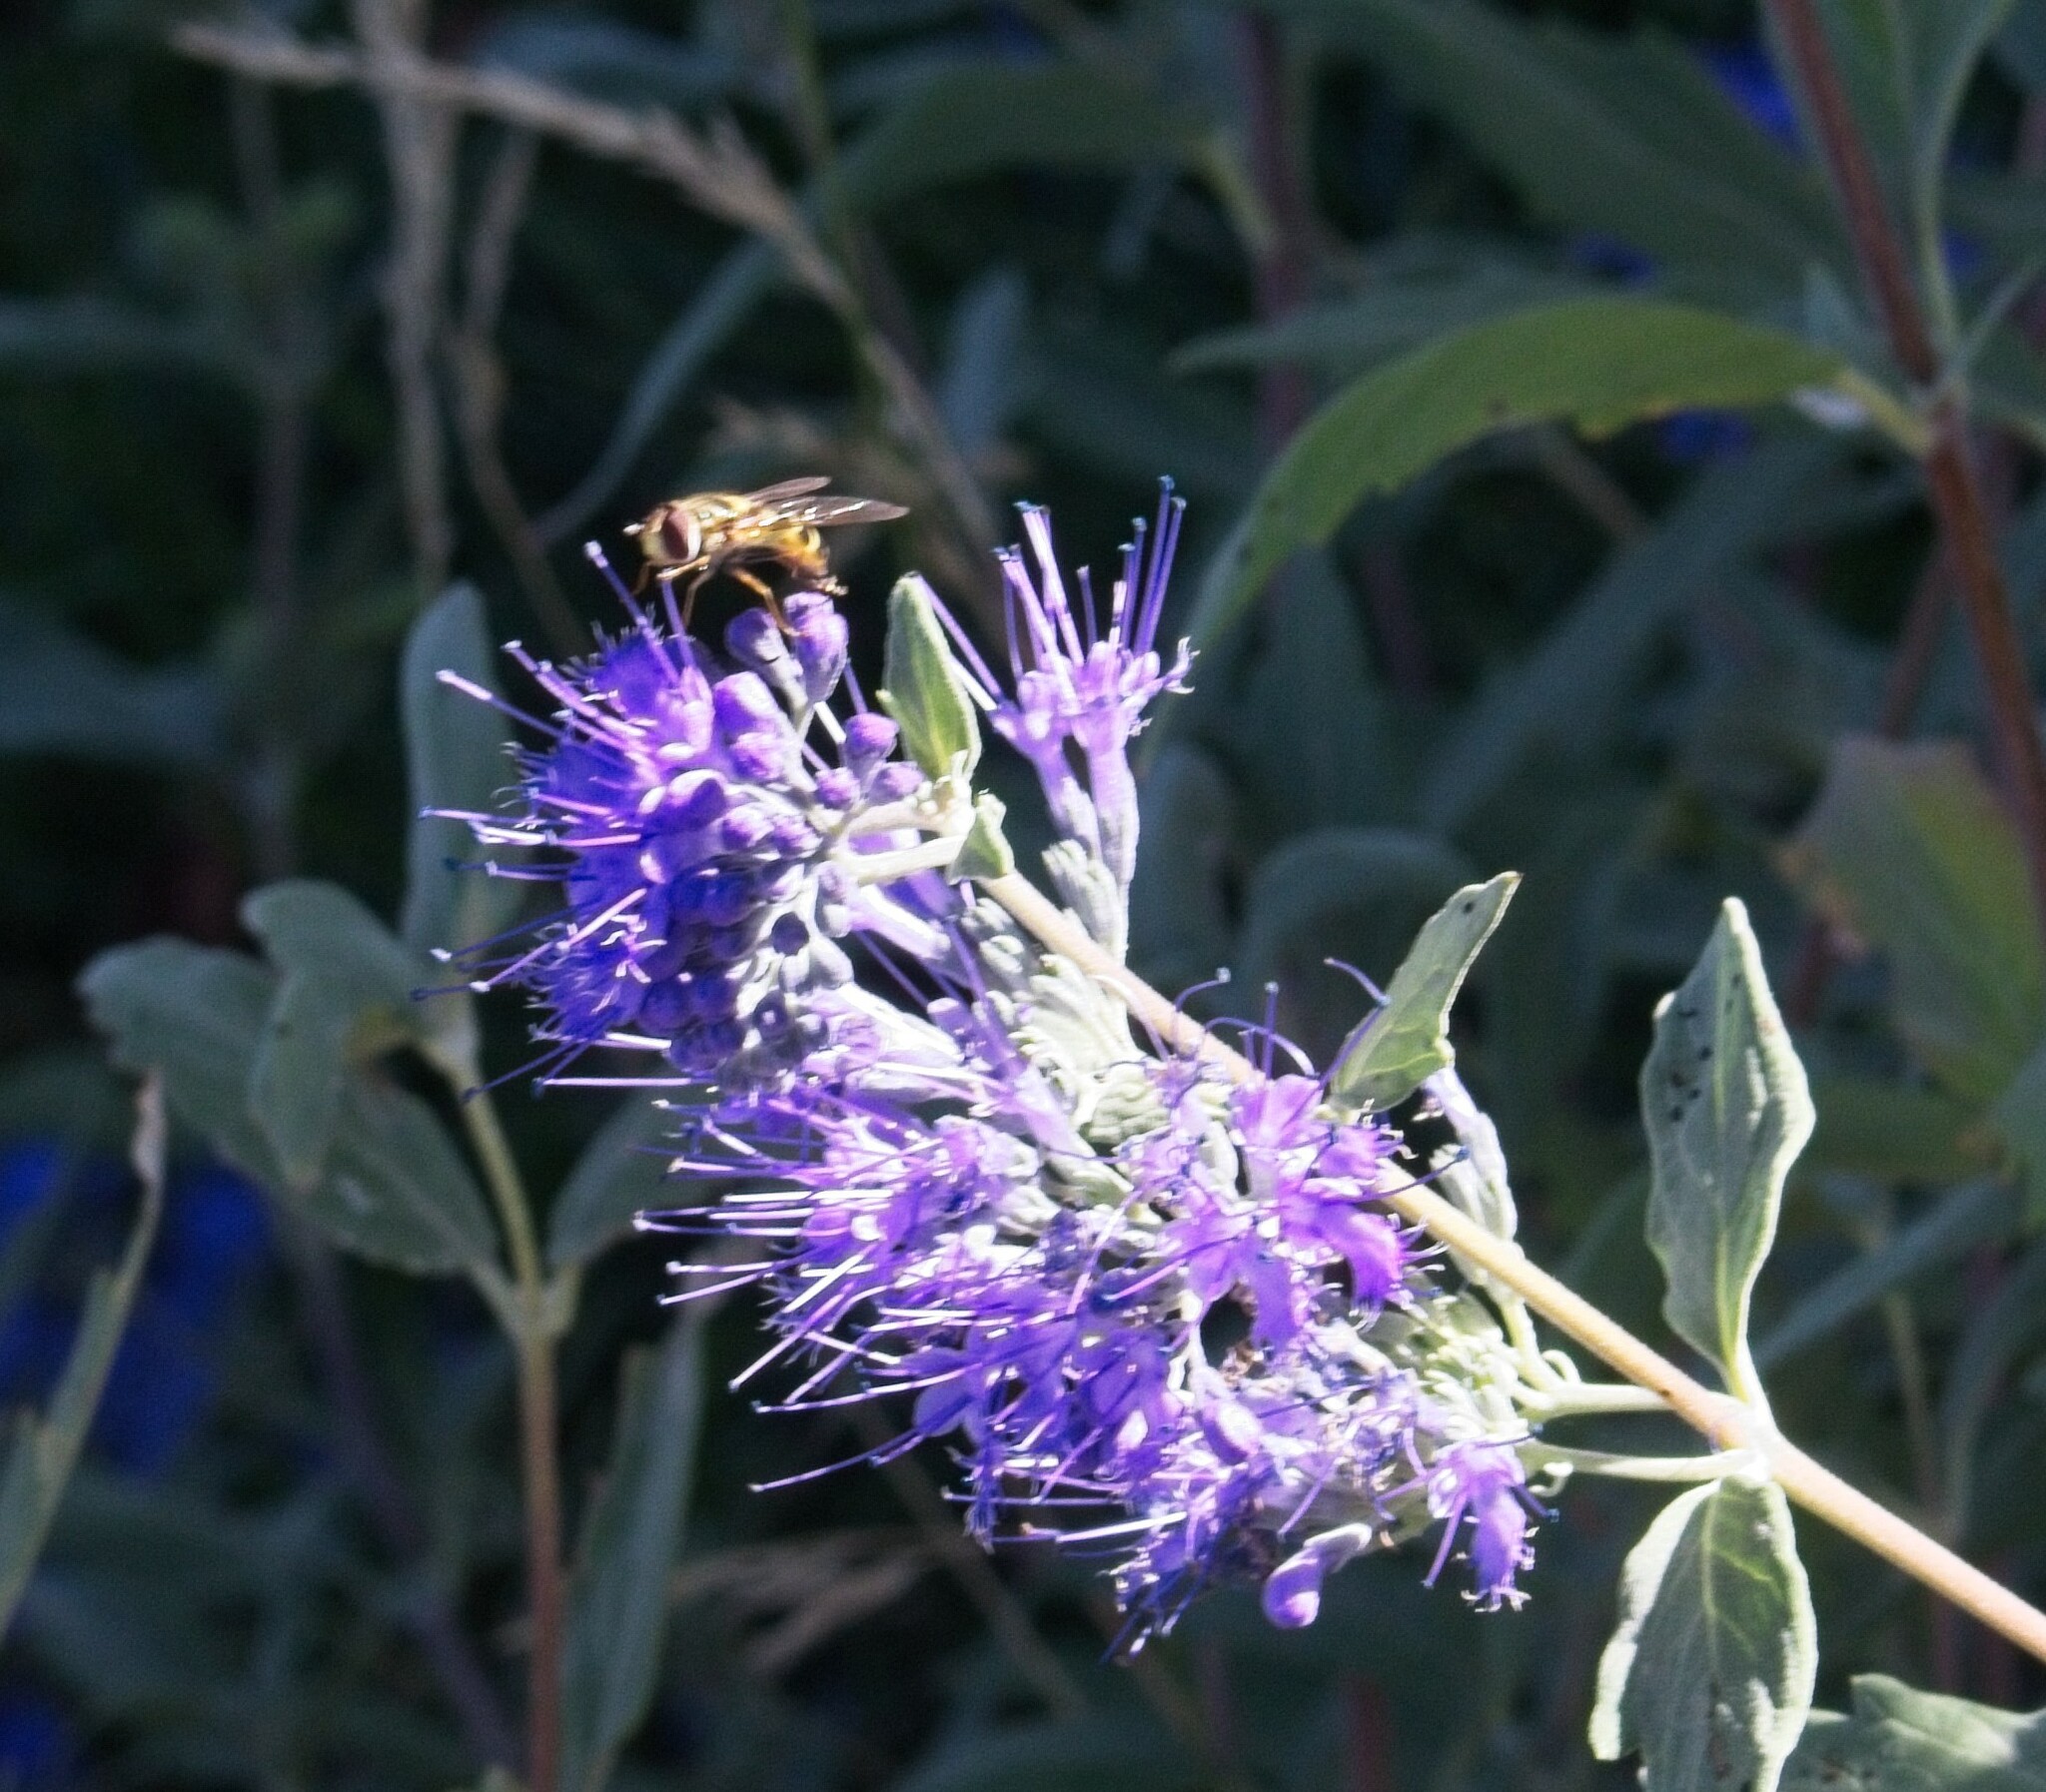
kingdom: Animalia
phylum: Arthropoda
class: Insecta
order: Diptera
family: Syrphidae
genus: Eupeodes
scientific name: Eupeodes fumipennis
